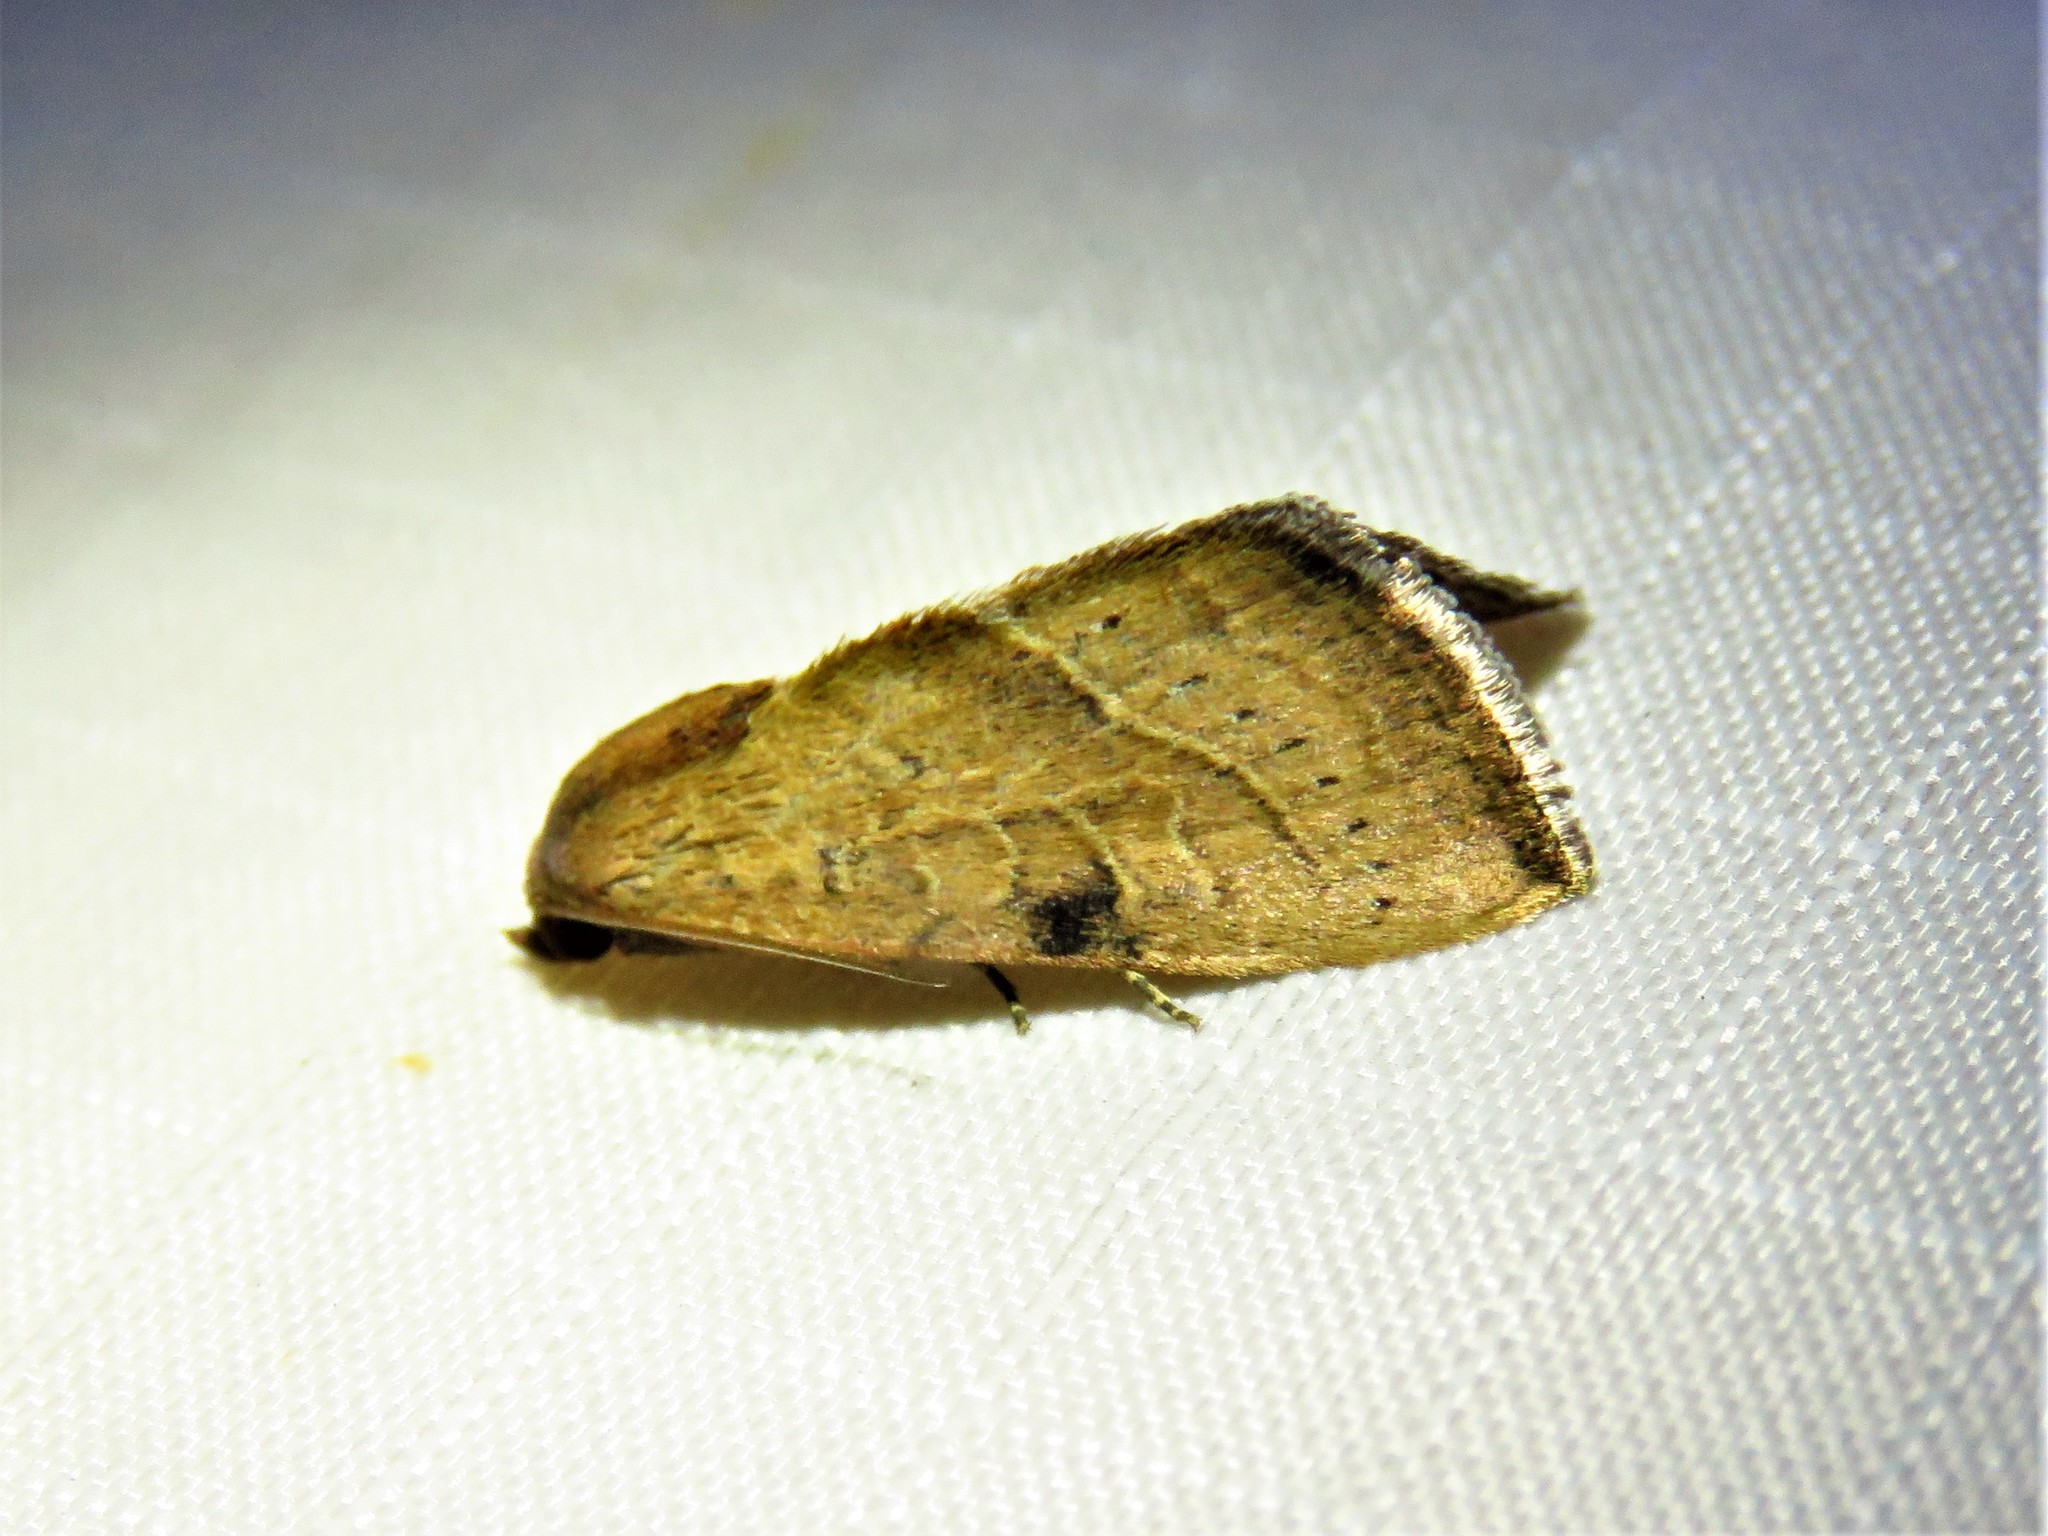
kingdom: Animalia
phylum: Arthropoda
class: Insecta
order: Lepidoptera
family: Noctuidae
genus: Galgula
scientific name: Galgula partita
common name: Wedgeling
